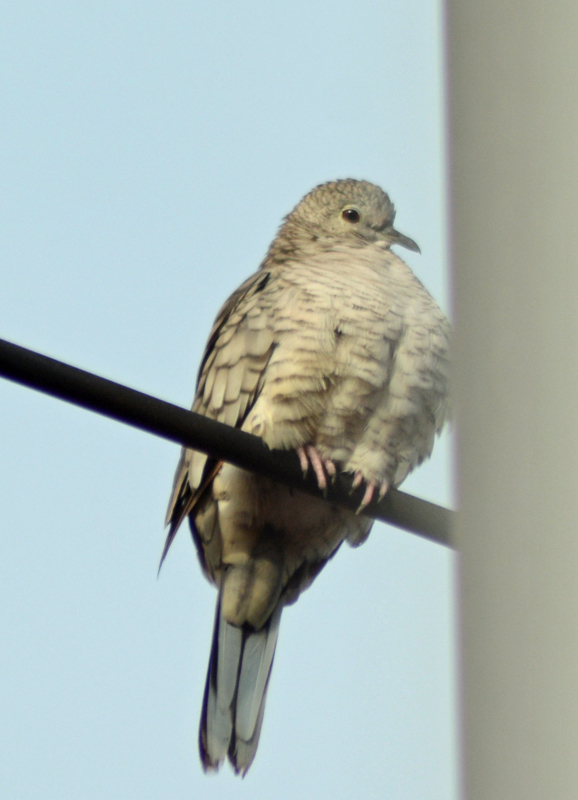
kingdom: Animalia
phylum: Chordata
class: Aves
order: Columbiformes
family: Columbidae
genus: Columbina
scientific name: Columbina inca
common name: Inca dove
